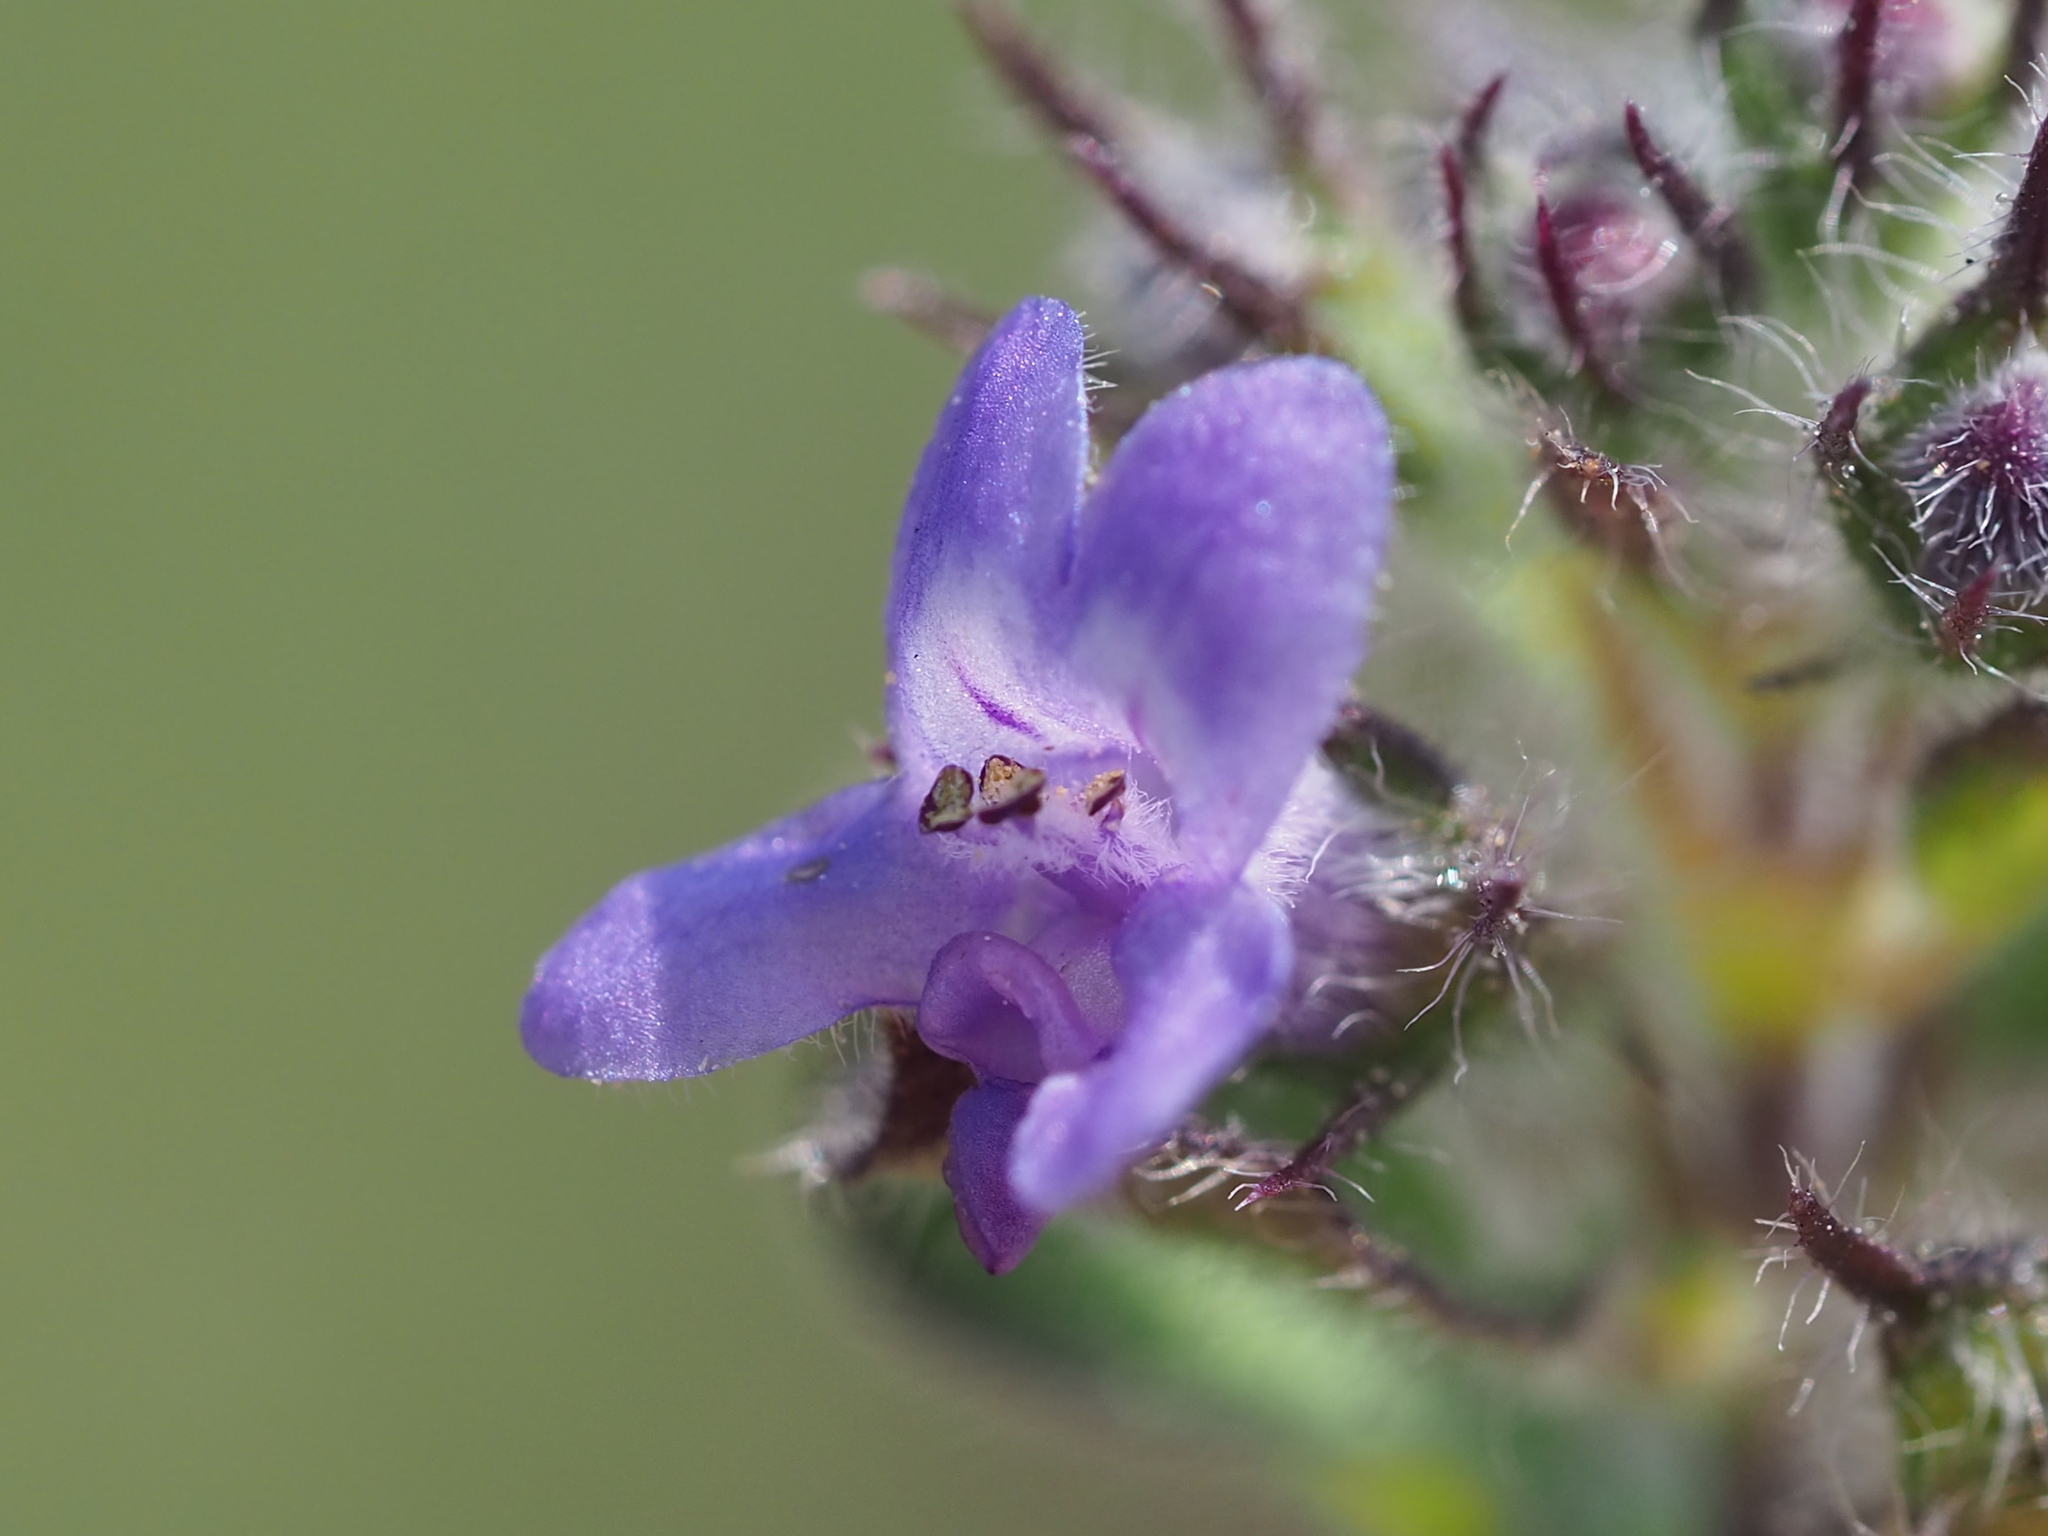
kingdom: Plantae
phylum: Tracheophyta
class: Magnoliopsida
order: Lamiales
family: Lamiaceae
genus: Mesosphaerum
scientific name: Mesosphaerum suaveolens
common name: Pignut
